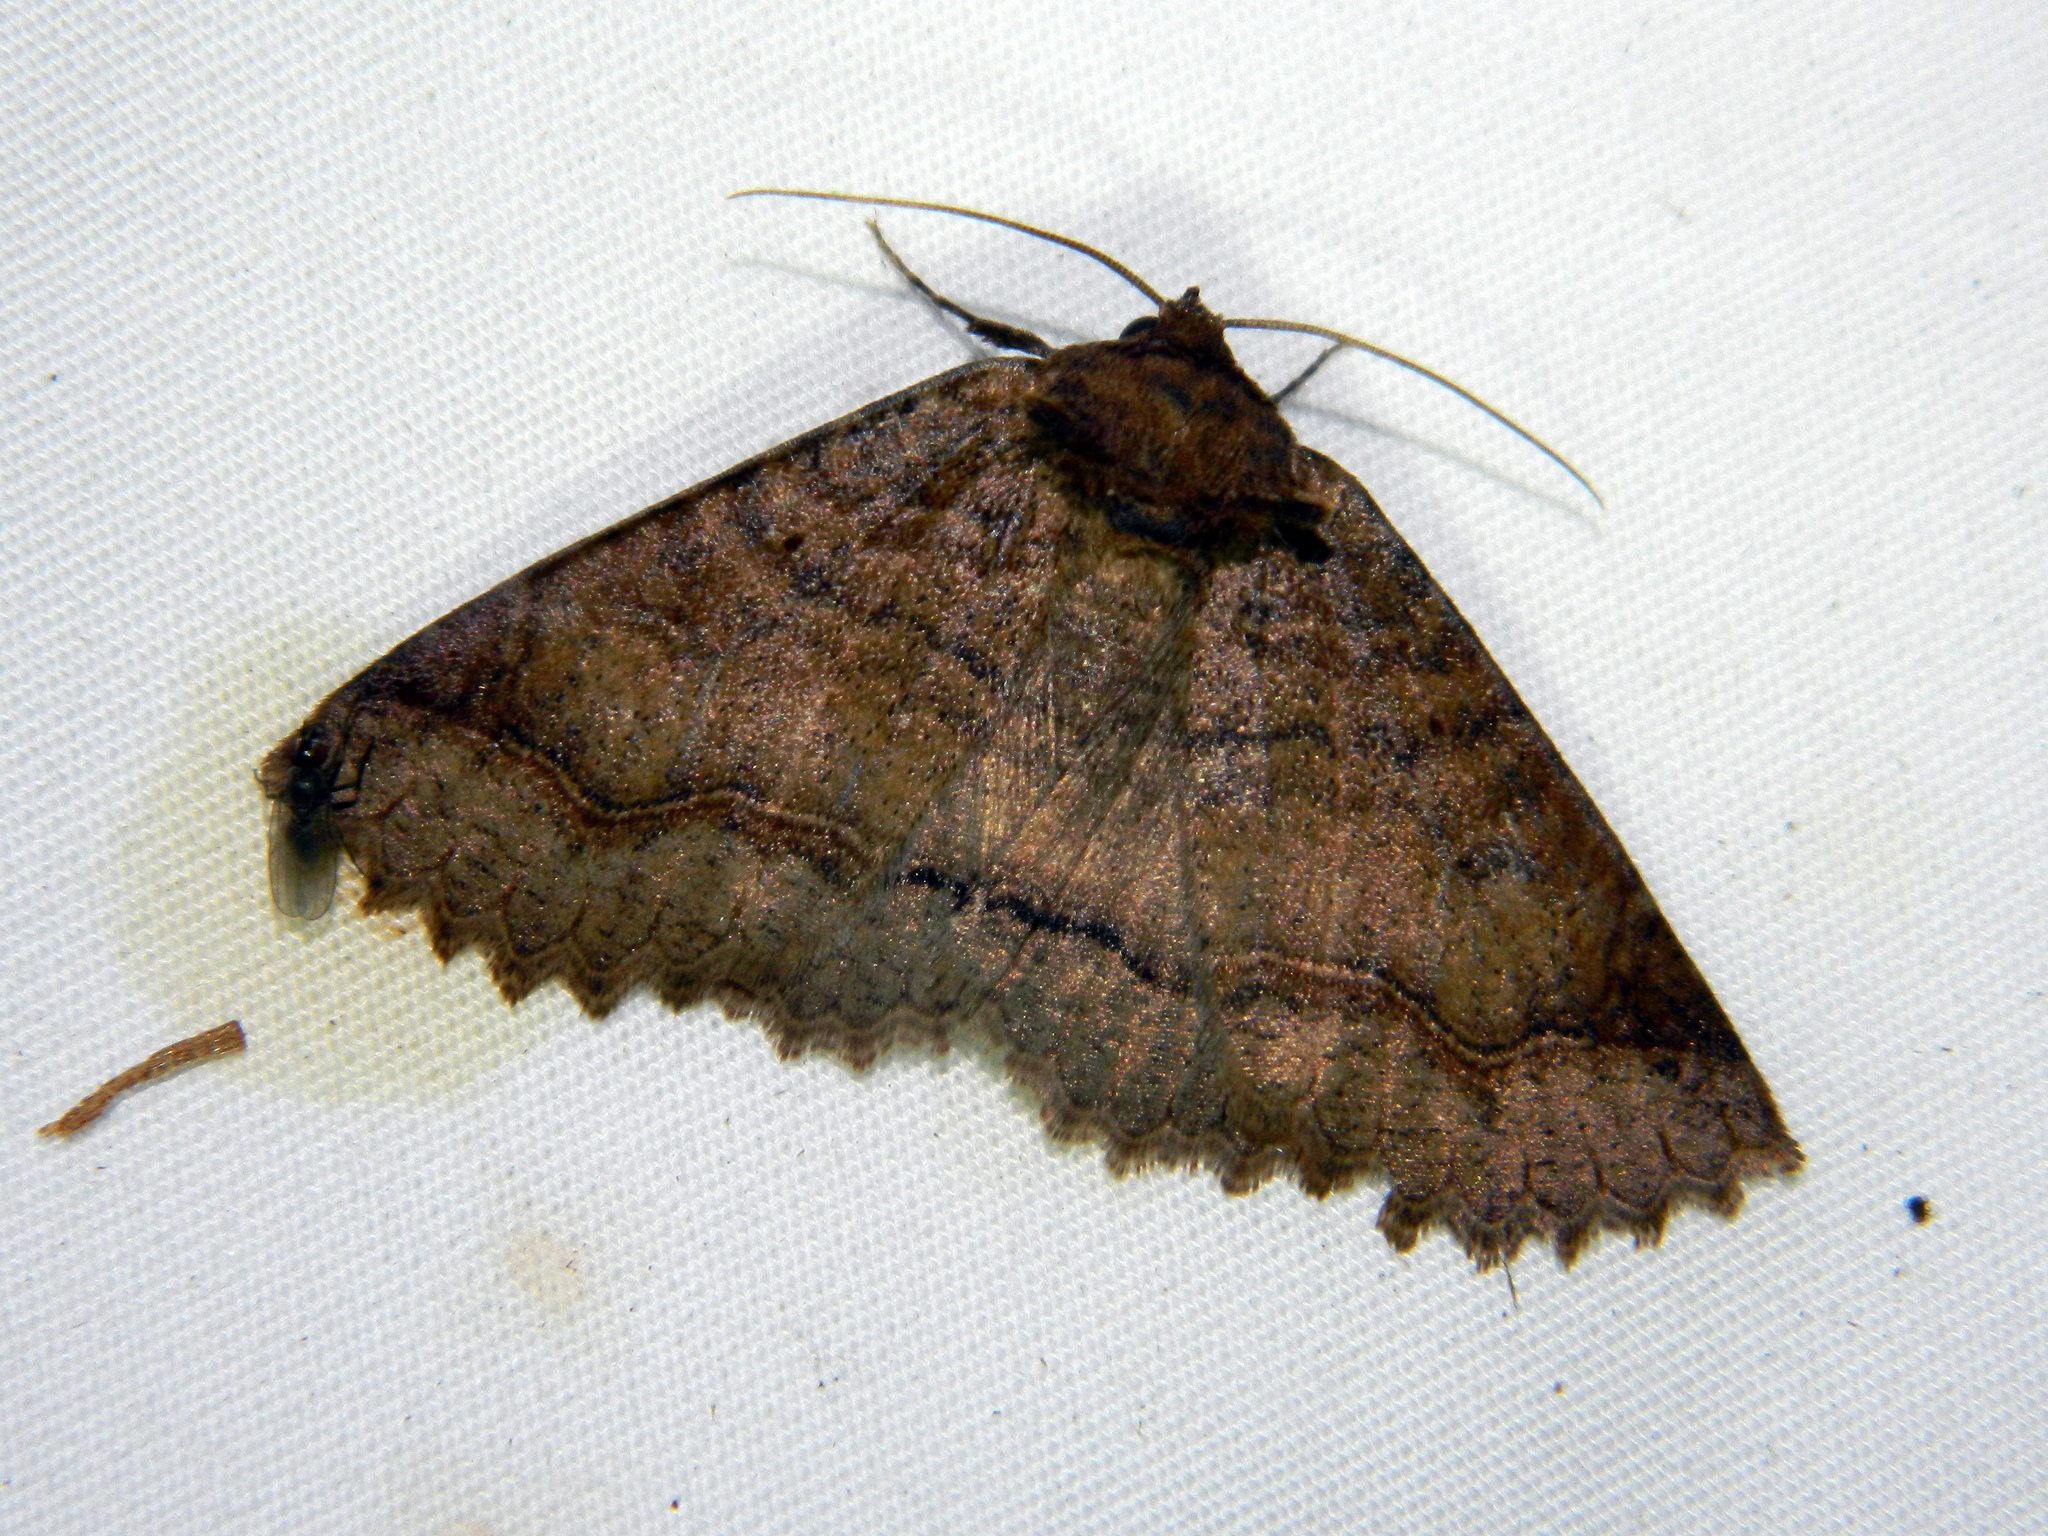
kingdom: Animalia
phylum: Arthropoda
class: Insecta
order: Lepidoptera
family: Erebidae
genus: Zale
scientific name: Zale unilineata
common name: One-lined zale moth
